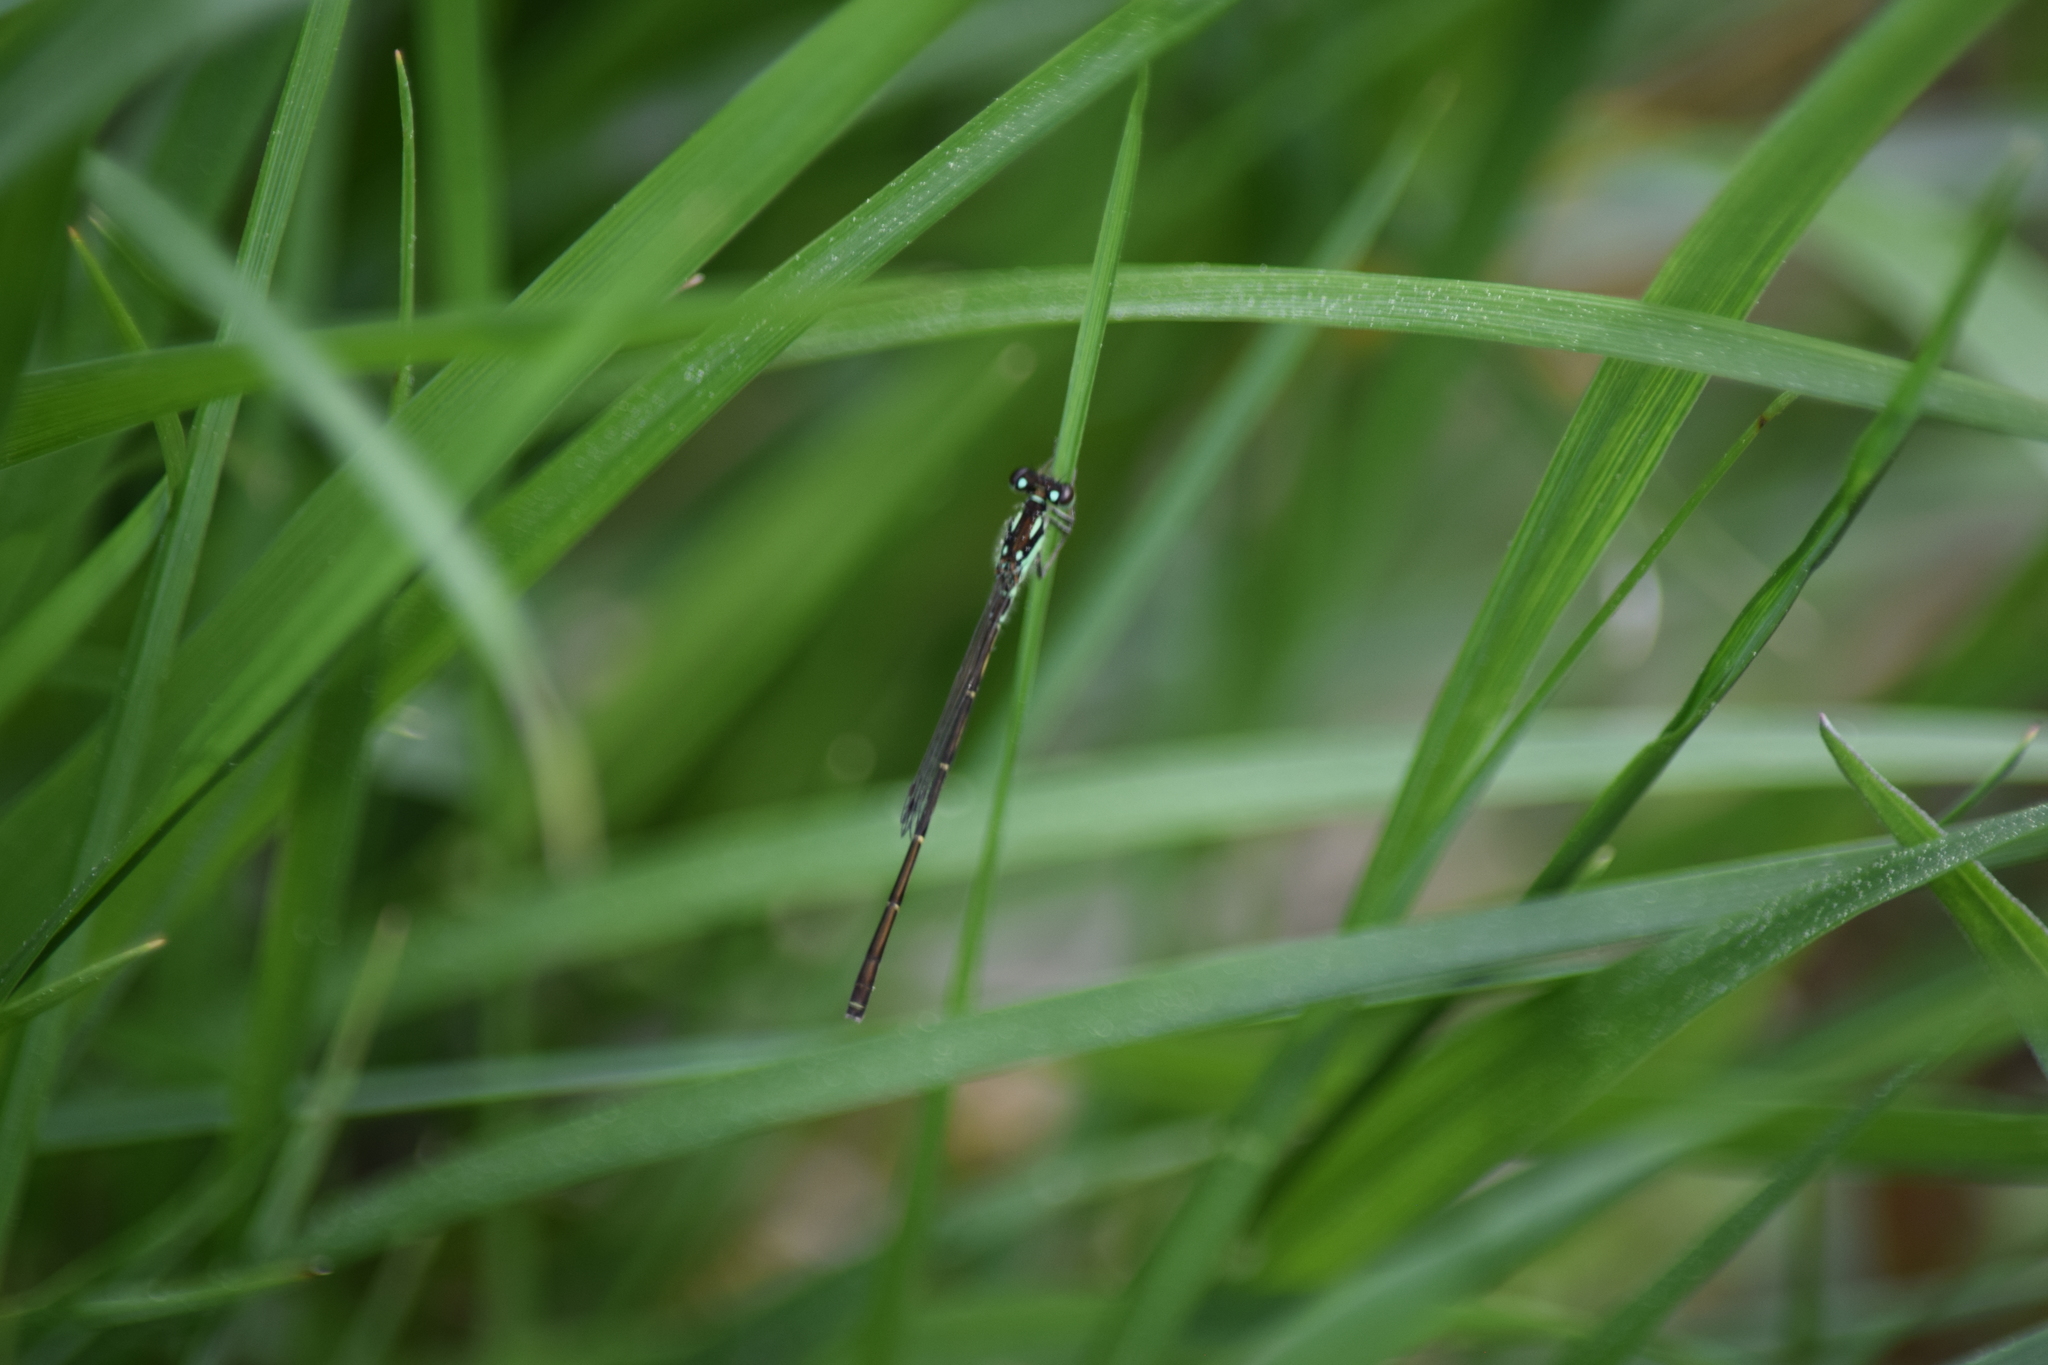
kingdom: Animalia
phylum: Arthropoda
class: Insecta
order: Odonata
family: Coenagrionidae
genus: Ischnura
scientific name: Ischnura posita
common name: Fragile forktail
